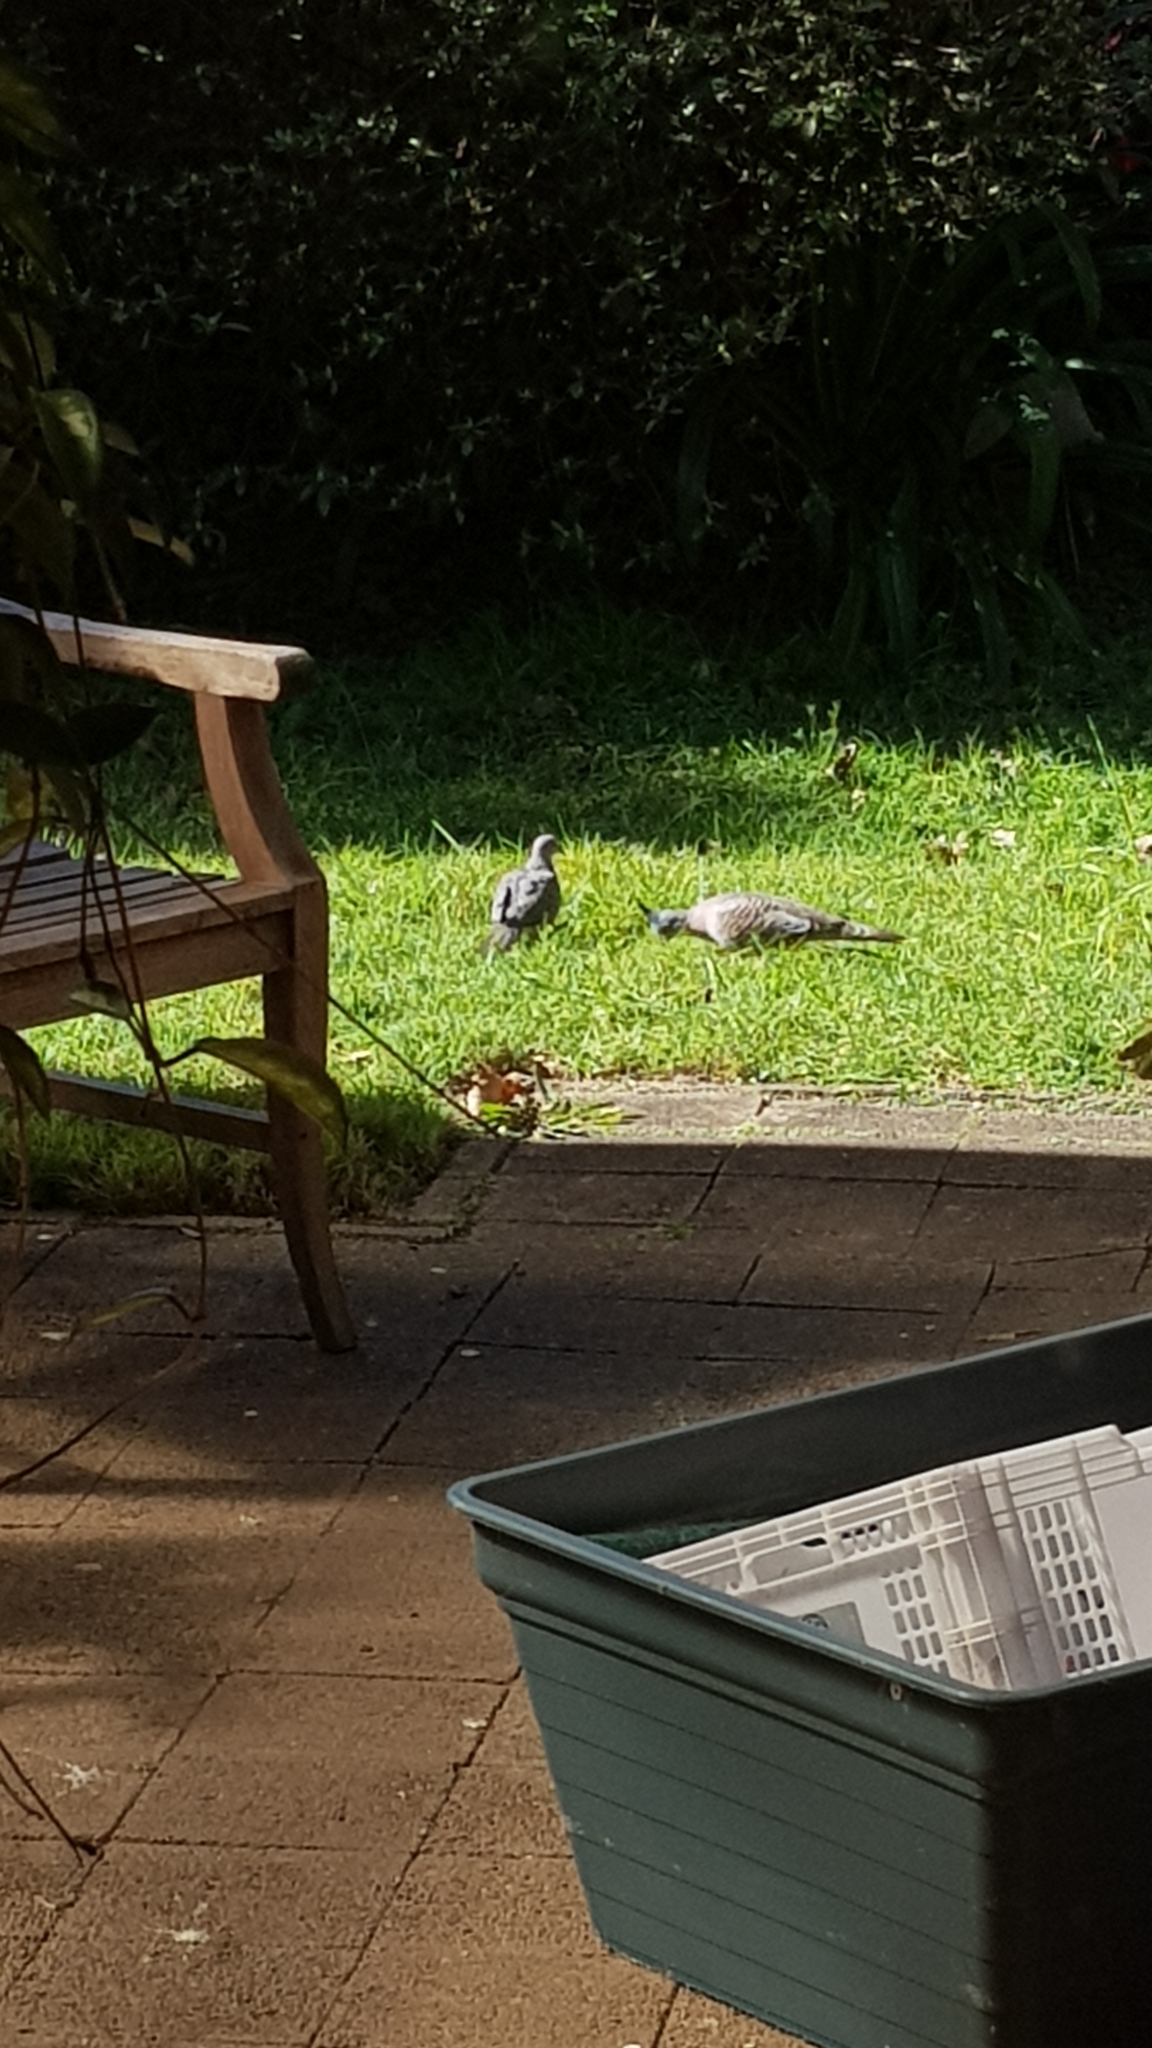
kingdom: Animalia
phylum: Chordata
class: Aves
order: Columbiformes
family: Columbidae
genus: Spilopelia
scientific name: Spilopelia chinensis
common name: Spotted dove
